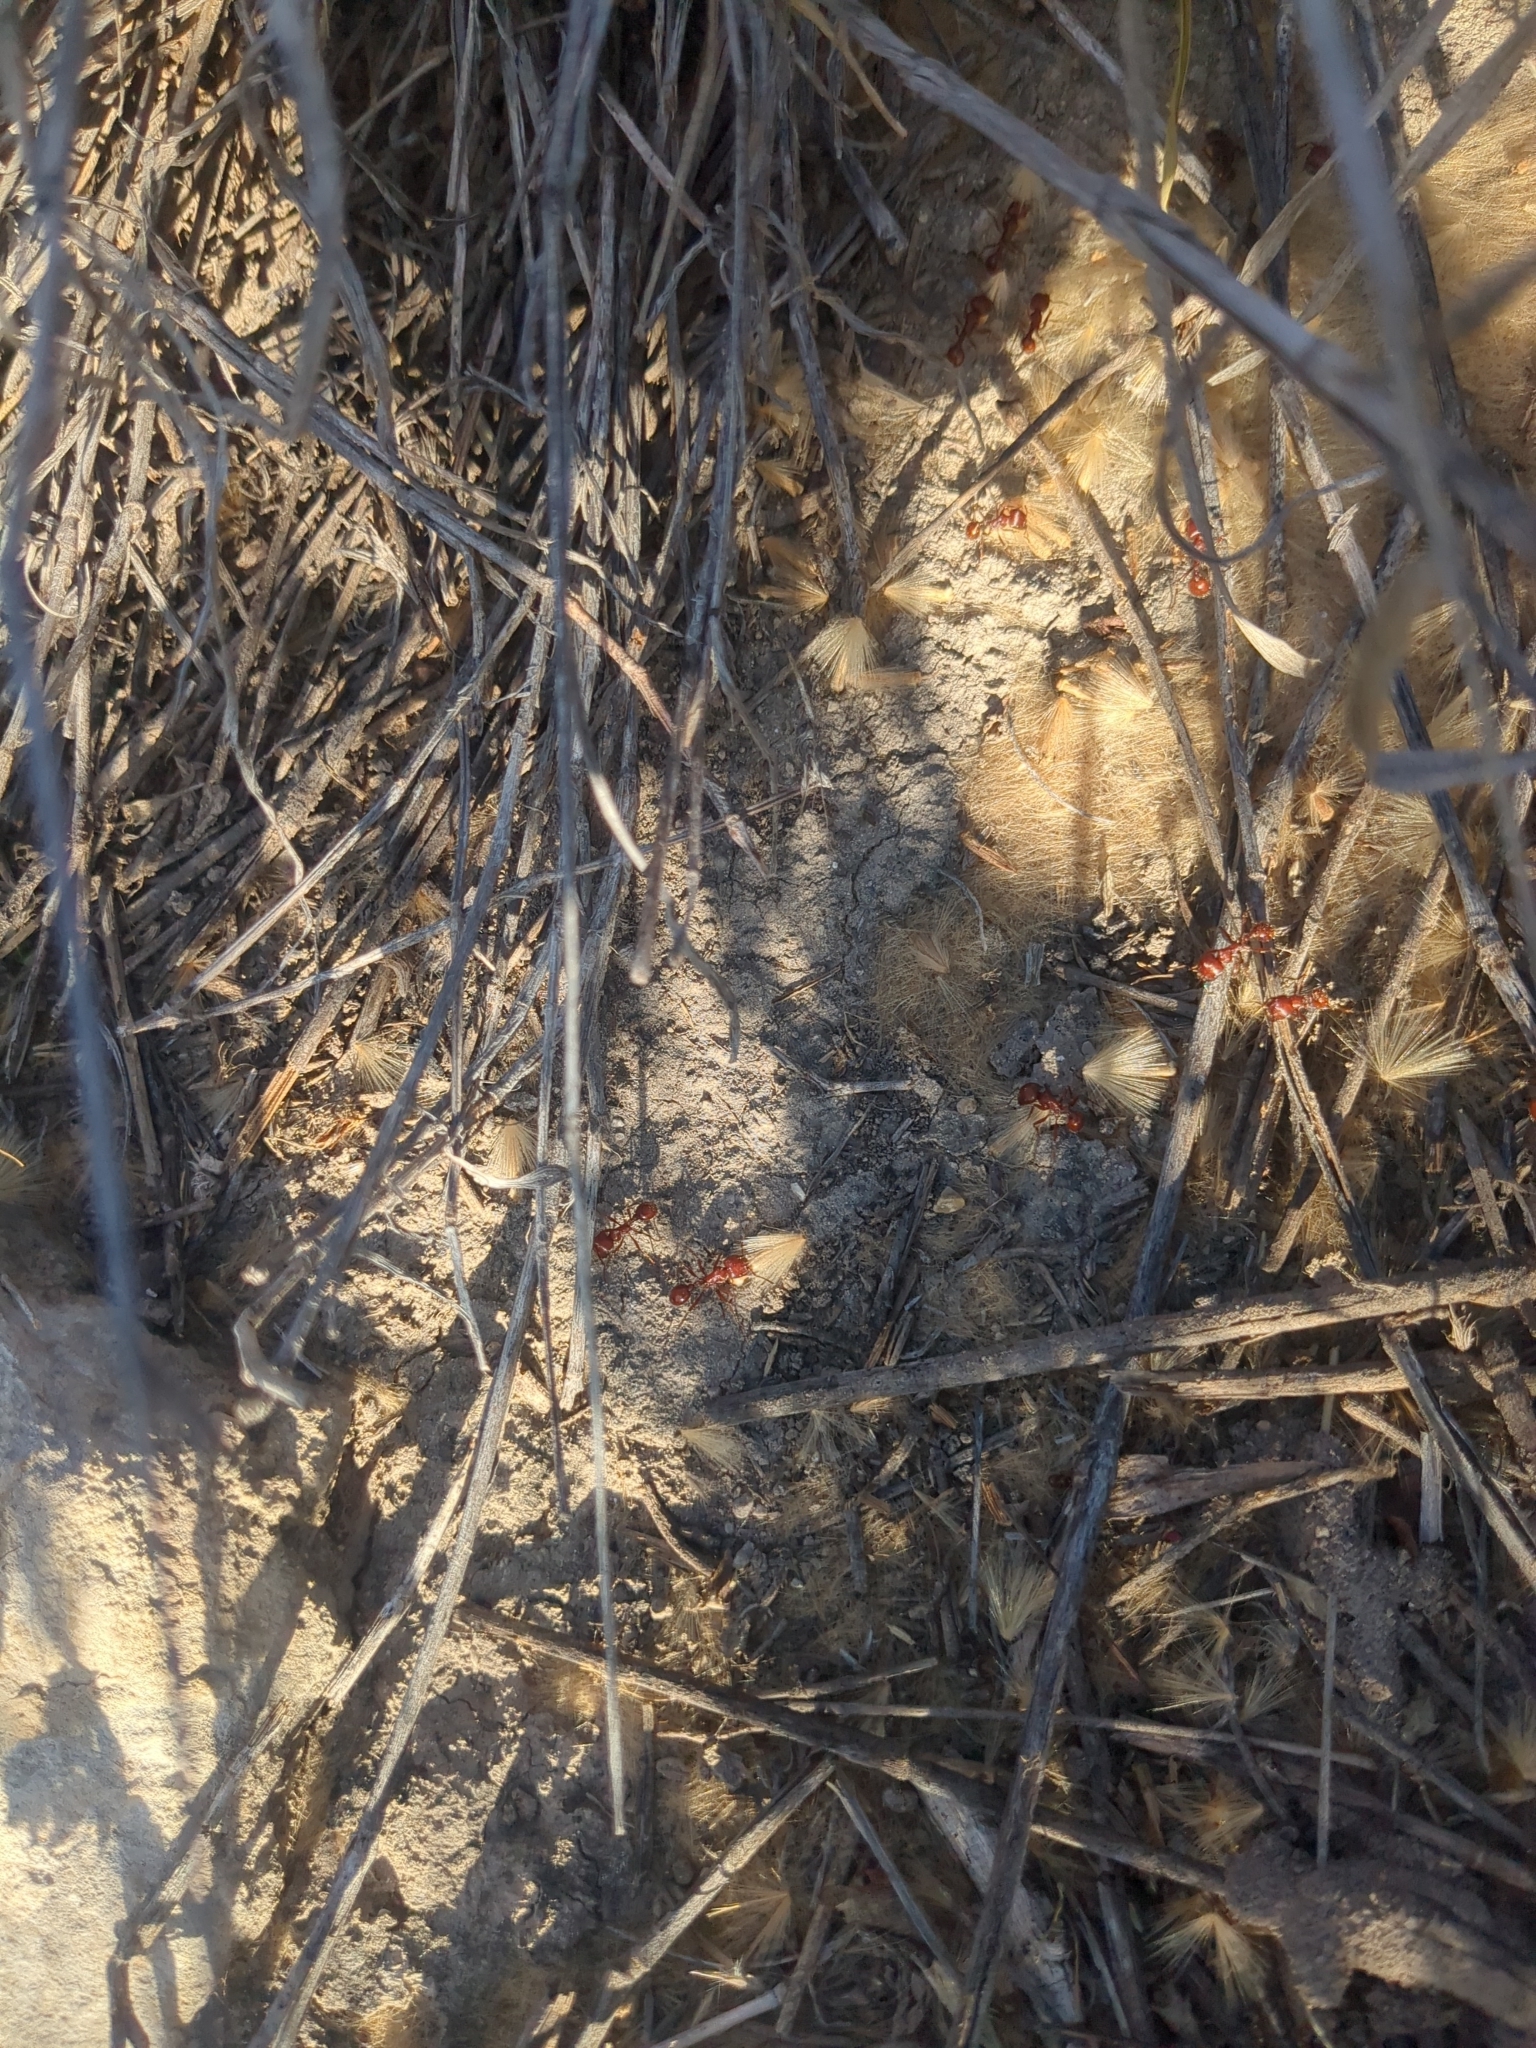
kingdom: Animalia
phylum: Arthropoda
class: Insecta
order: Hymenoptera
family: Formicidae
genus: Pogonomyrmex
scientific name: Pogonomyrmex barbatus
